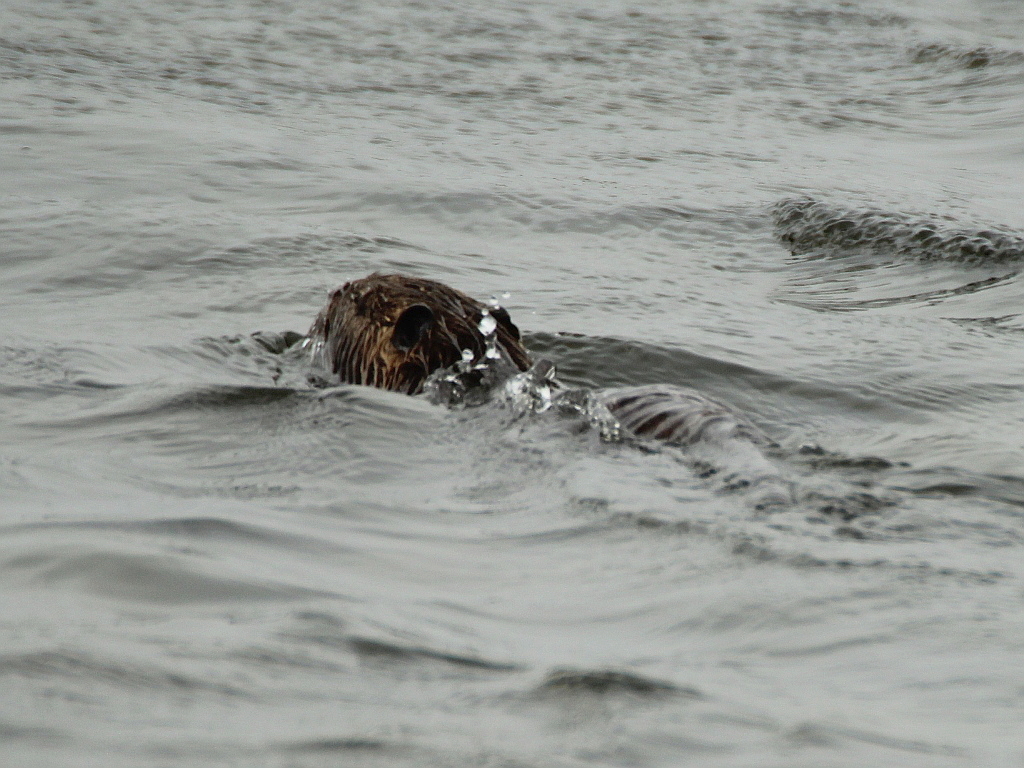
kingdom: Animalia
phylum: Chordata
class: Mammalia
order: Rodentia
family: Myocastoridae
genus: Myocastor
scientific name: Myocastor coypus
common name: Coypu
